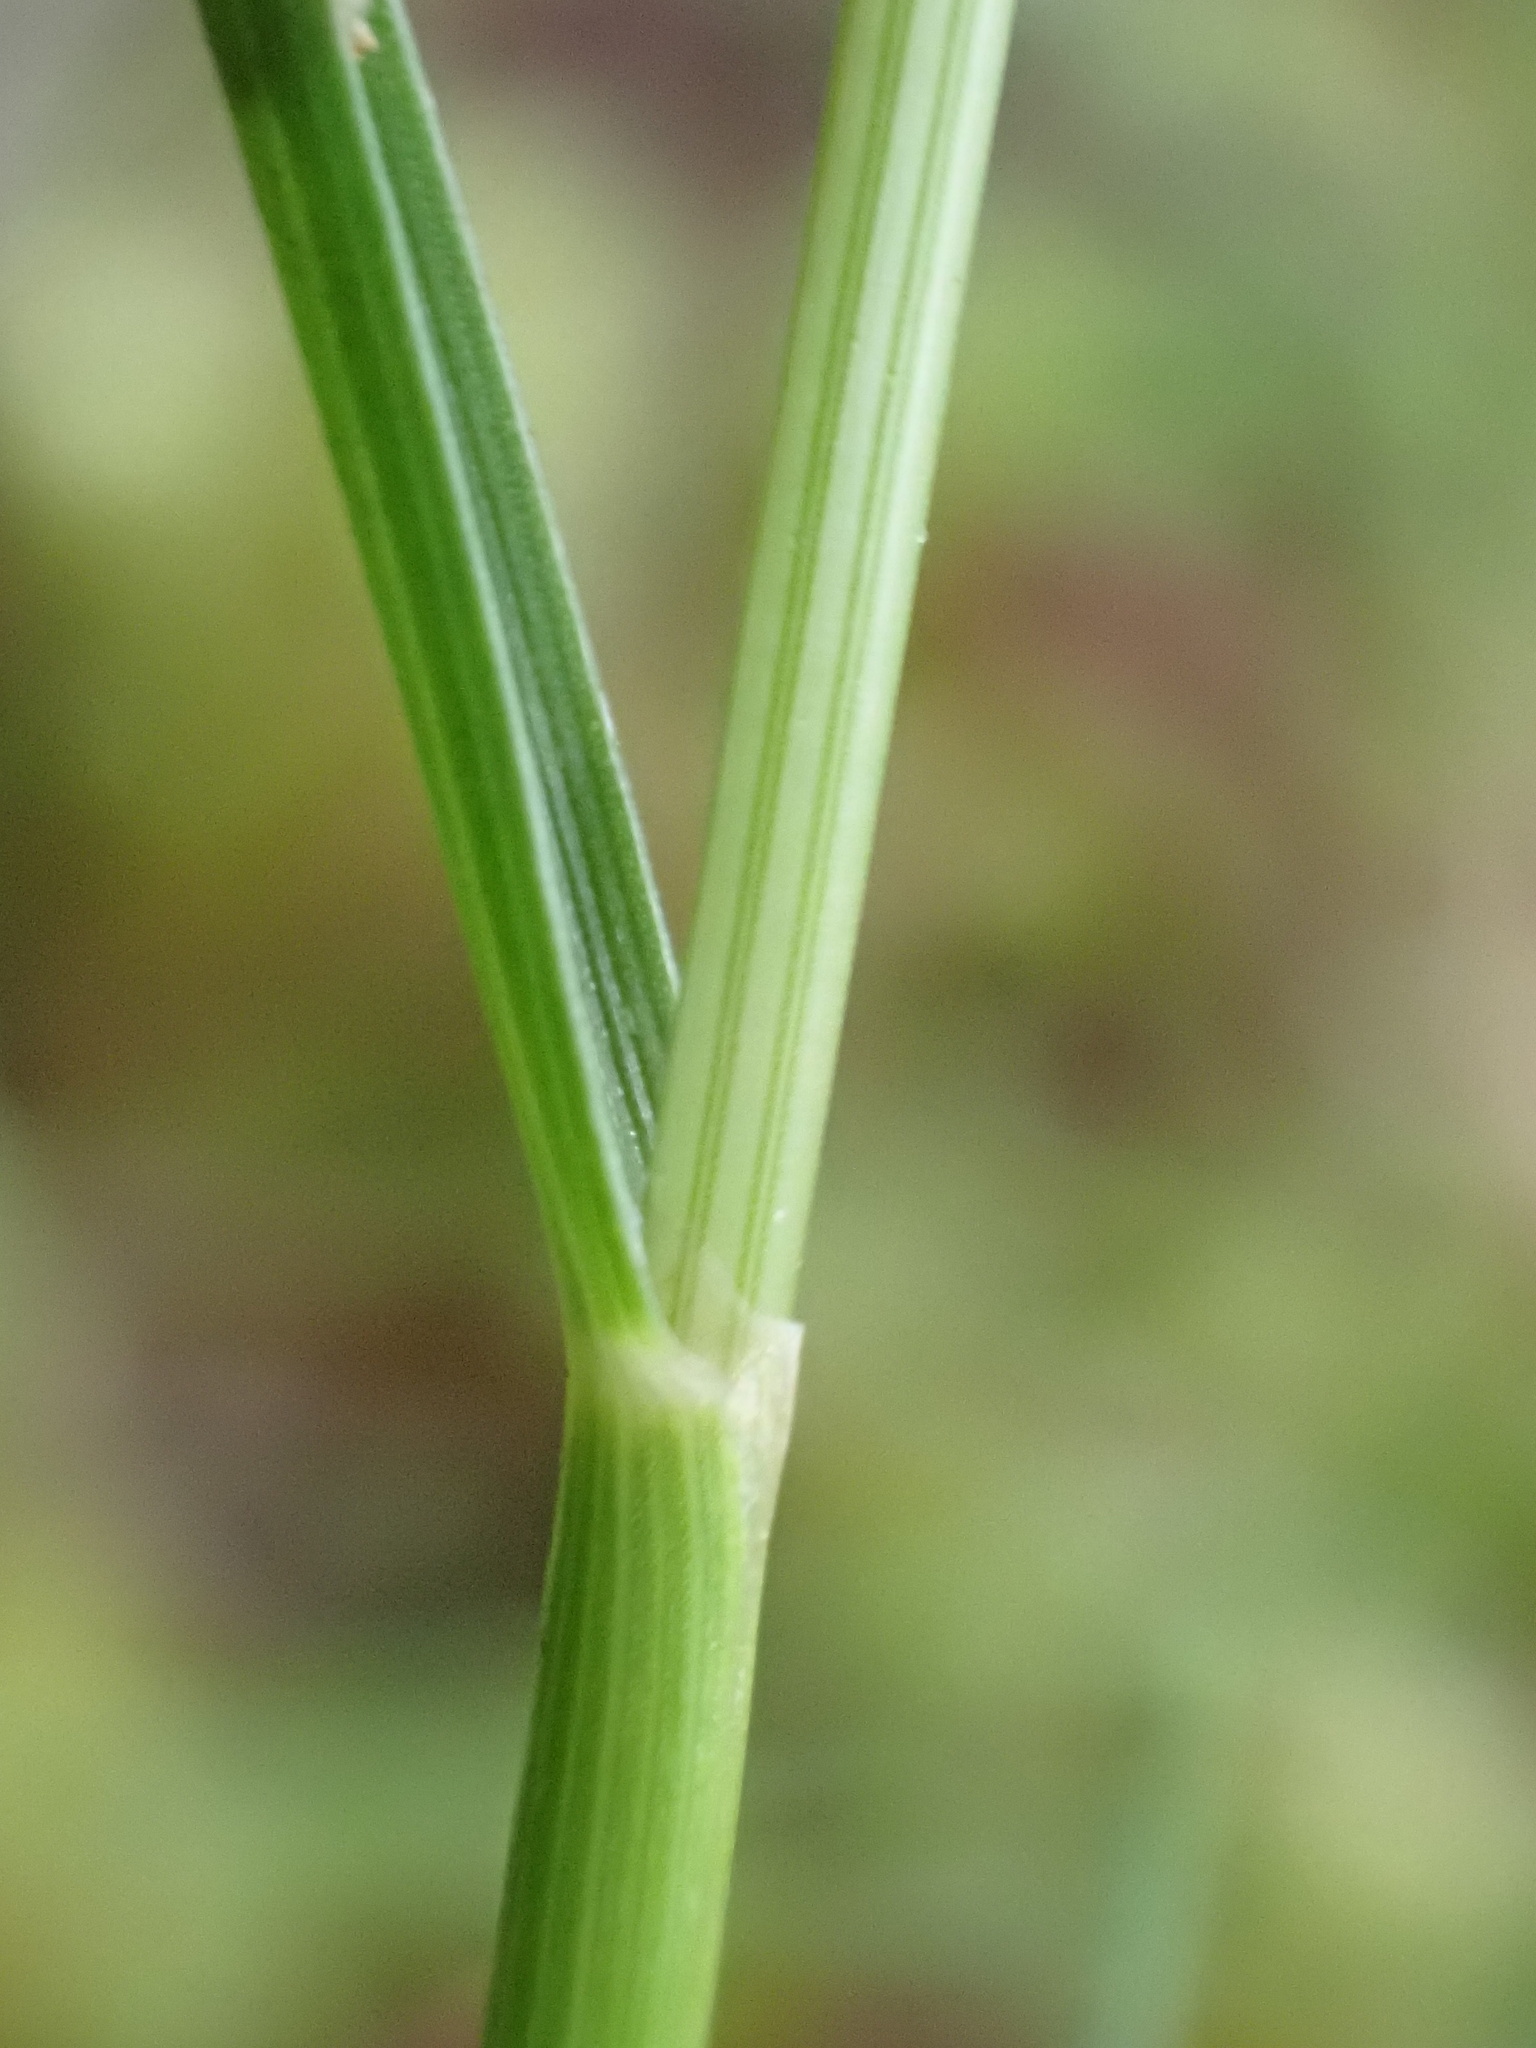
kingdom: Plantae
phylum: Tracheophyta
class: Liliopsida
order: Poales
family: Poaceae
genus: Cynosurus
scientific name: Cynosurus cristatus
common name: Crested dog's-tail
